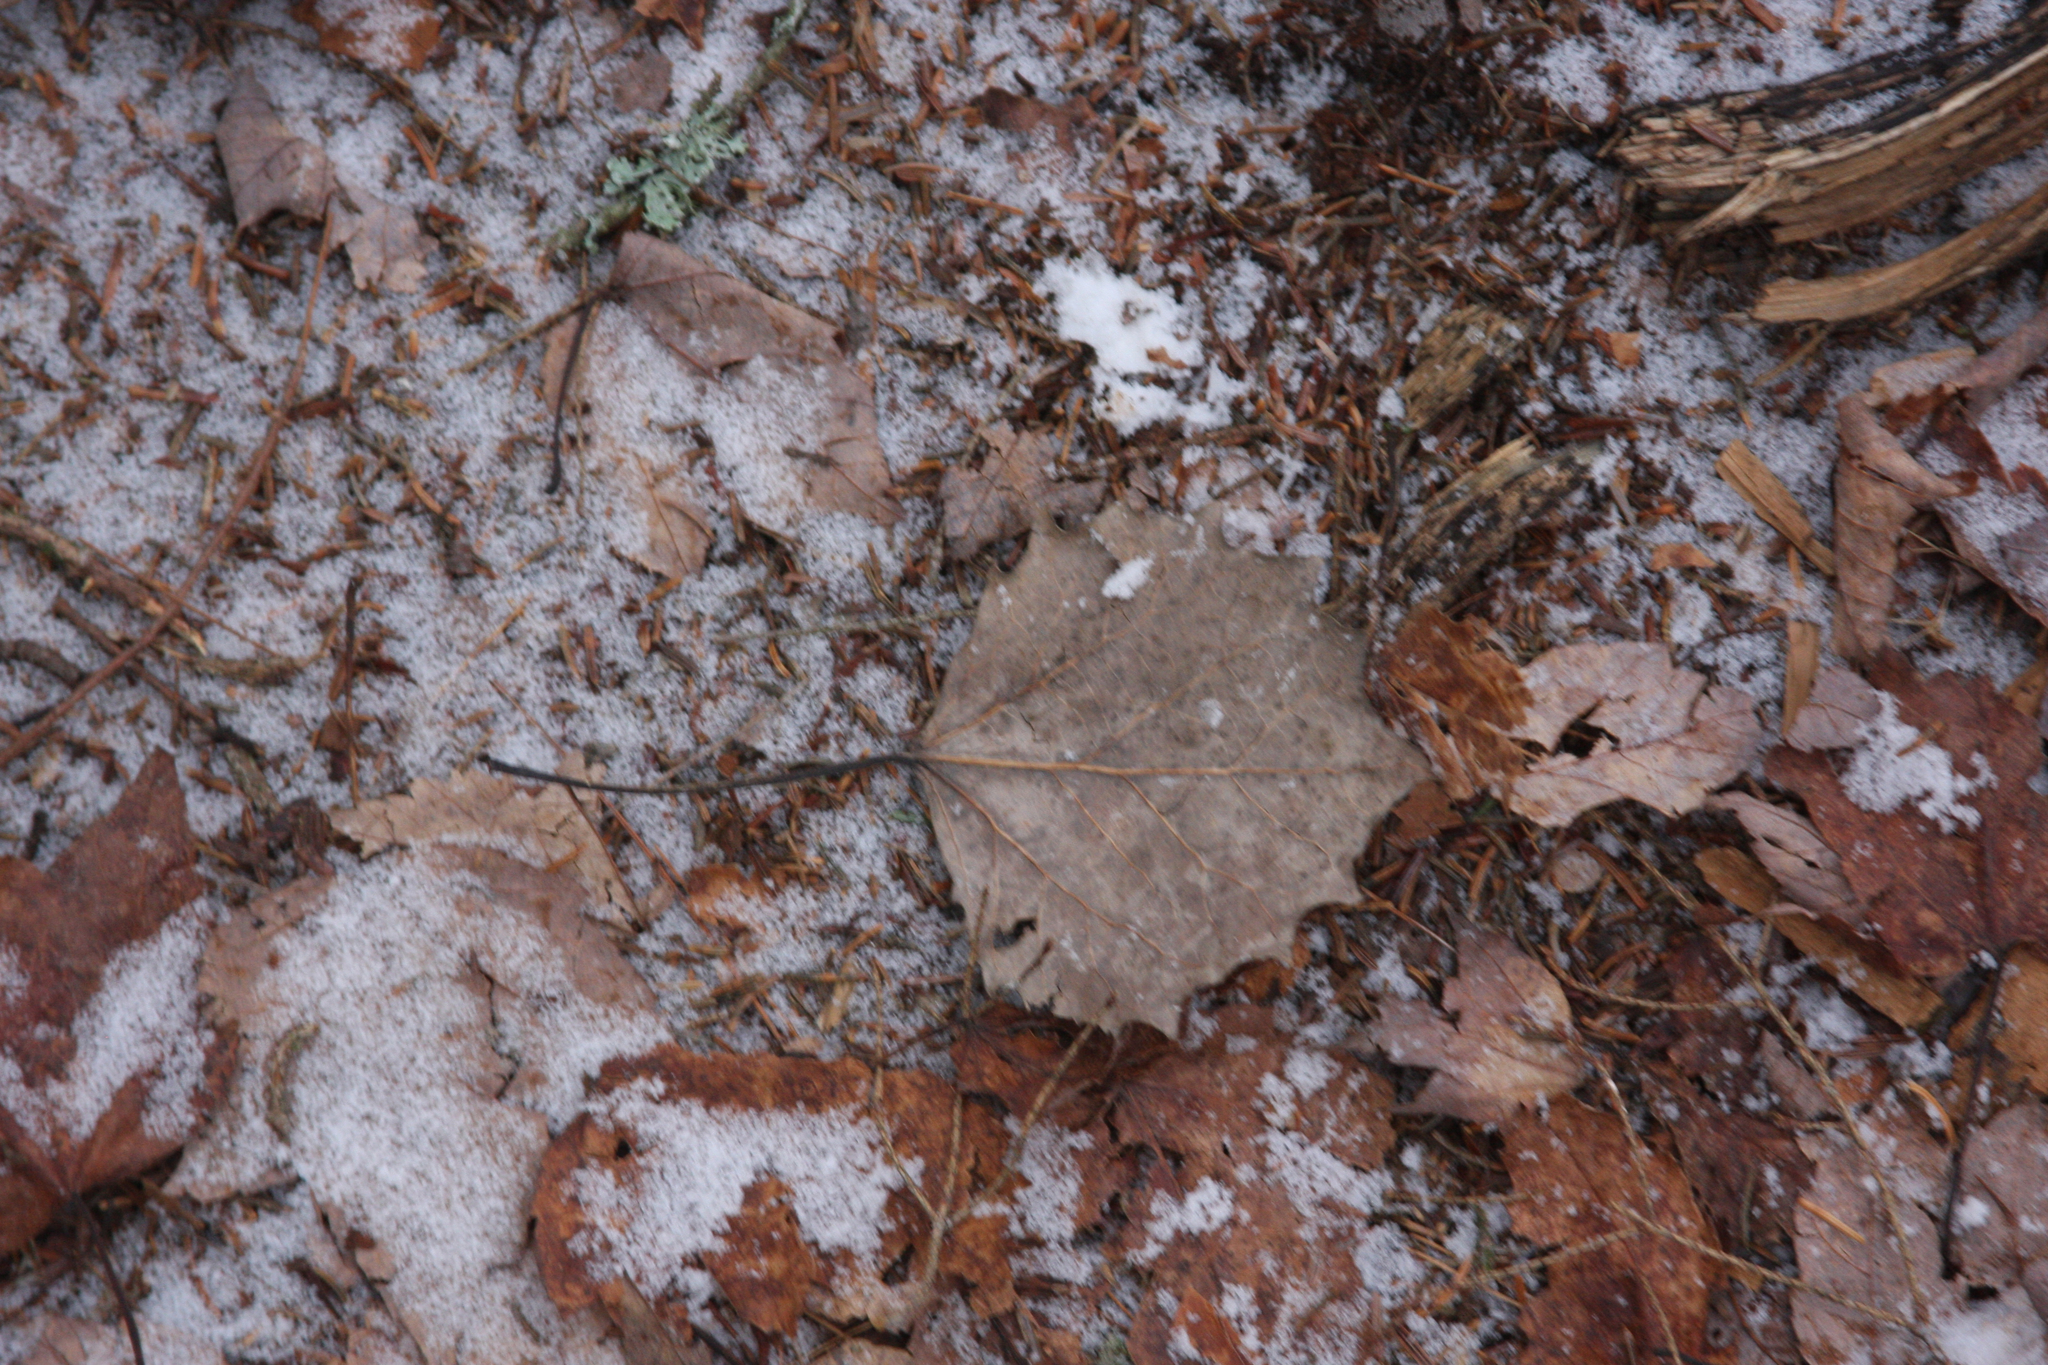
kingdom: Plantae
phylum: Tracheophyta
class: Magnoliopsida
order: Malpighiales
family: Salicaceae
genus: Populus
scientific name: Populus grandidentata
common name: Bigtooth aspen
